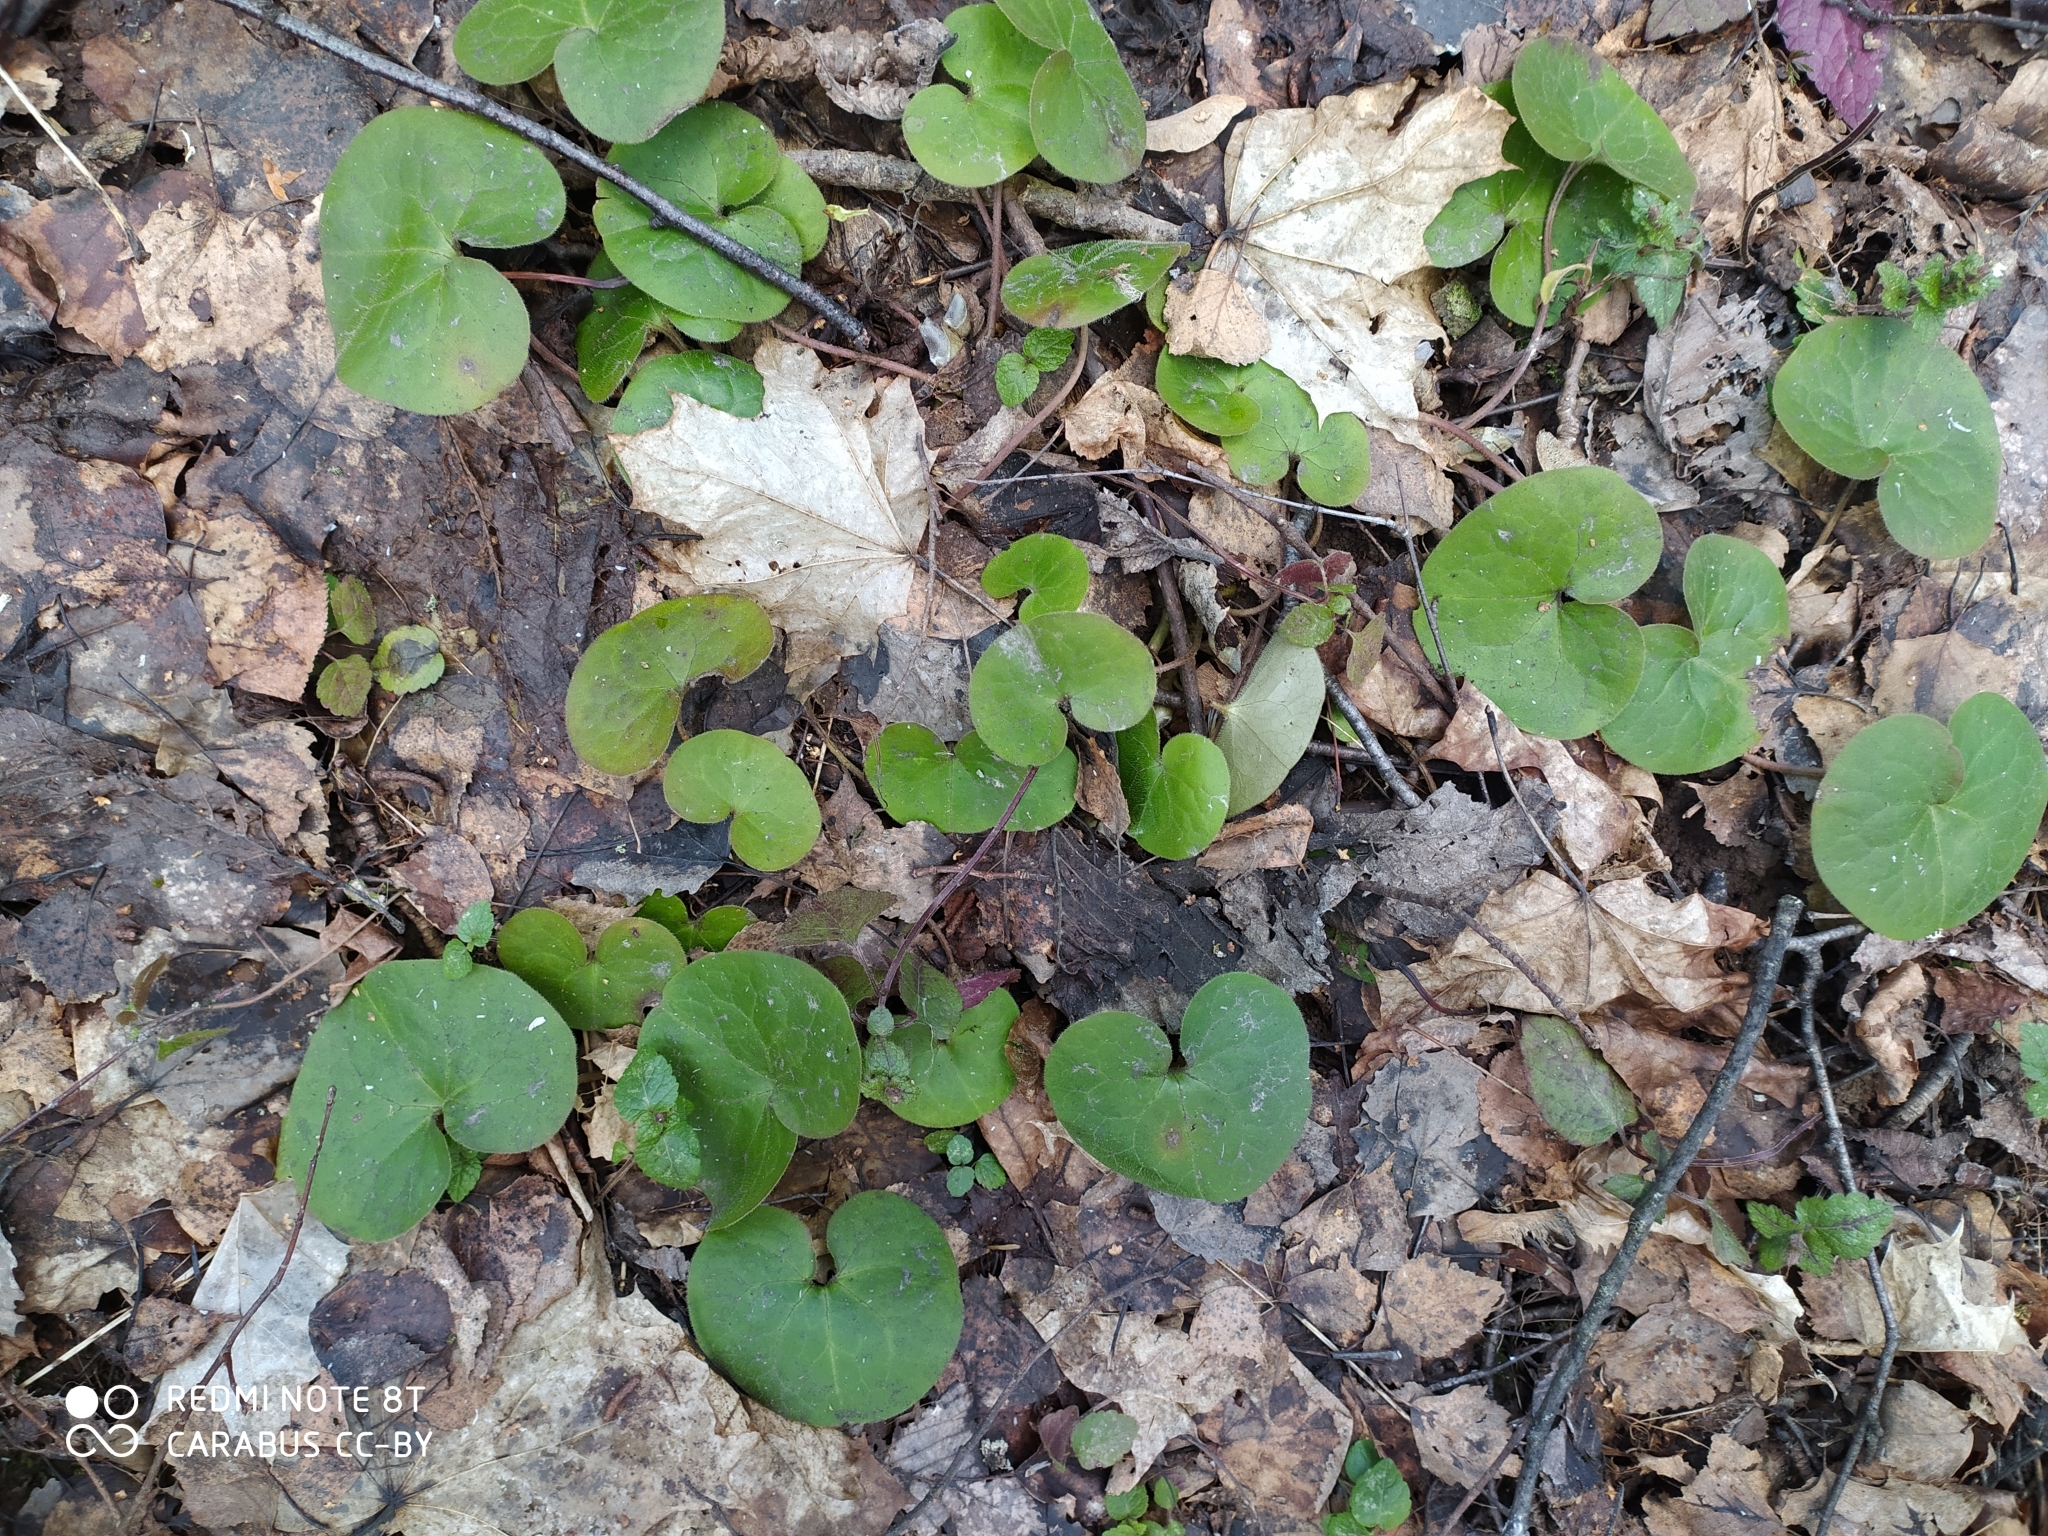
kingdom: Plantae
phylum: Tracheophyta
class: Magnoliopsida
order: Piperales
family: Aristolochiaceae
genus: Asarum
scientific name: Asarum europaeum
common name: Asarabacca
